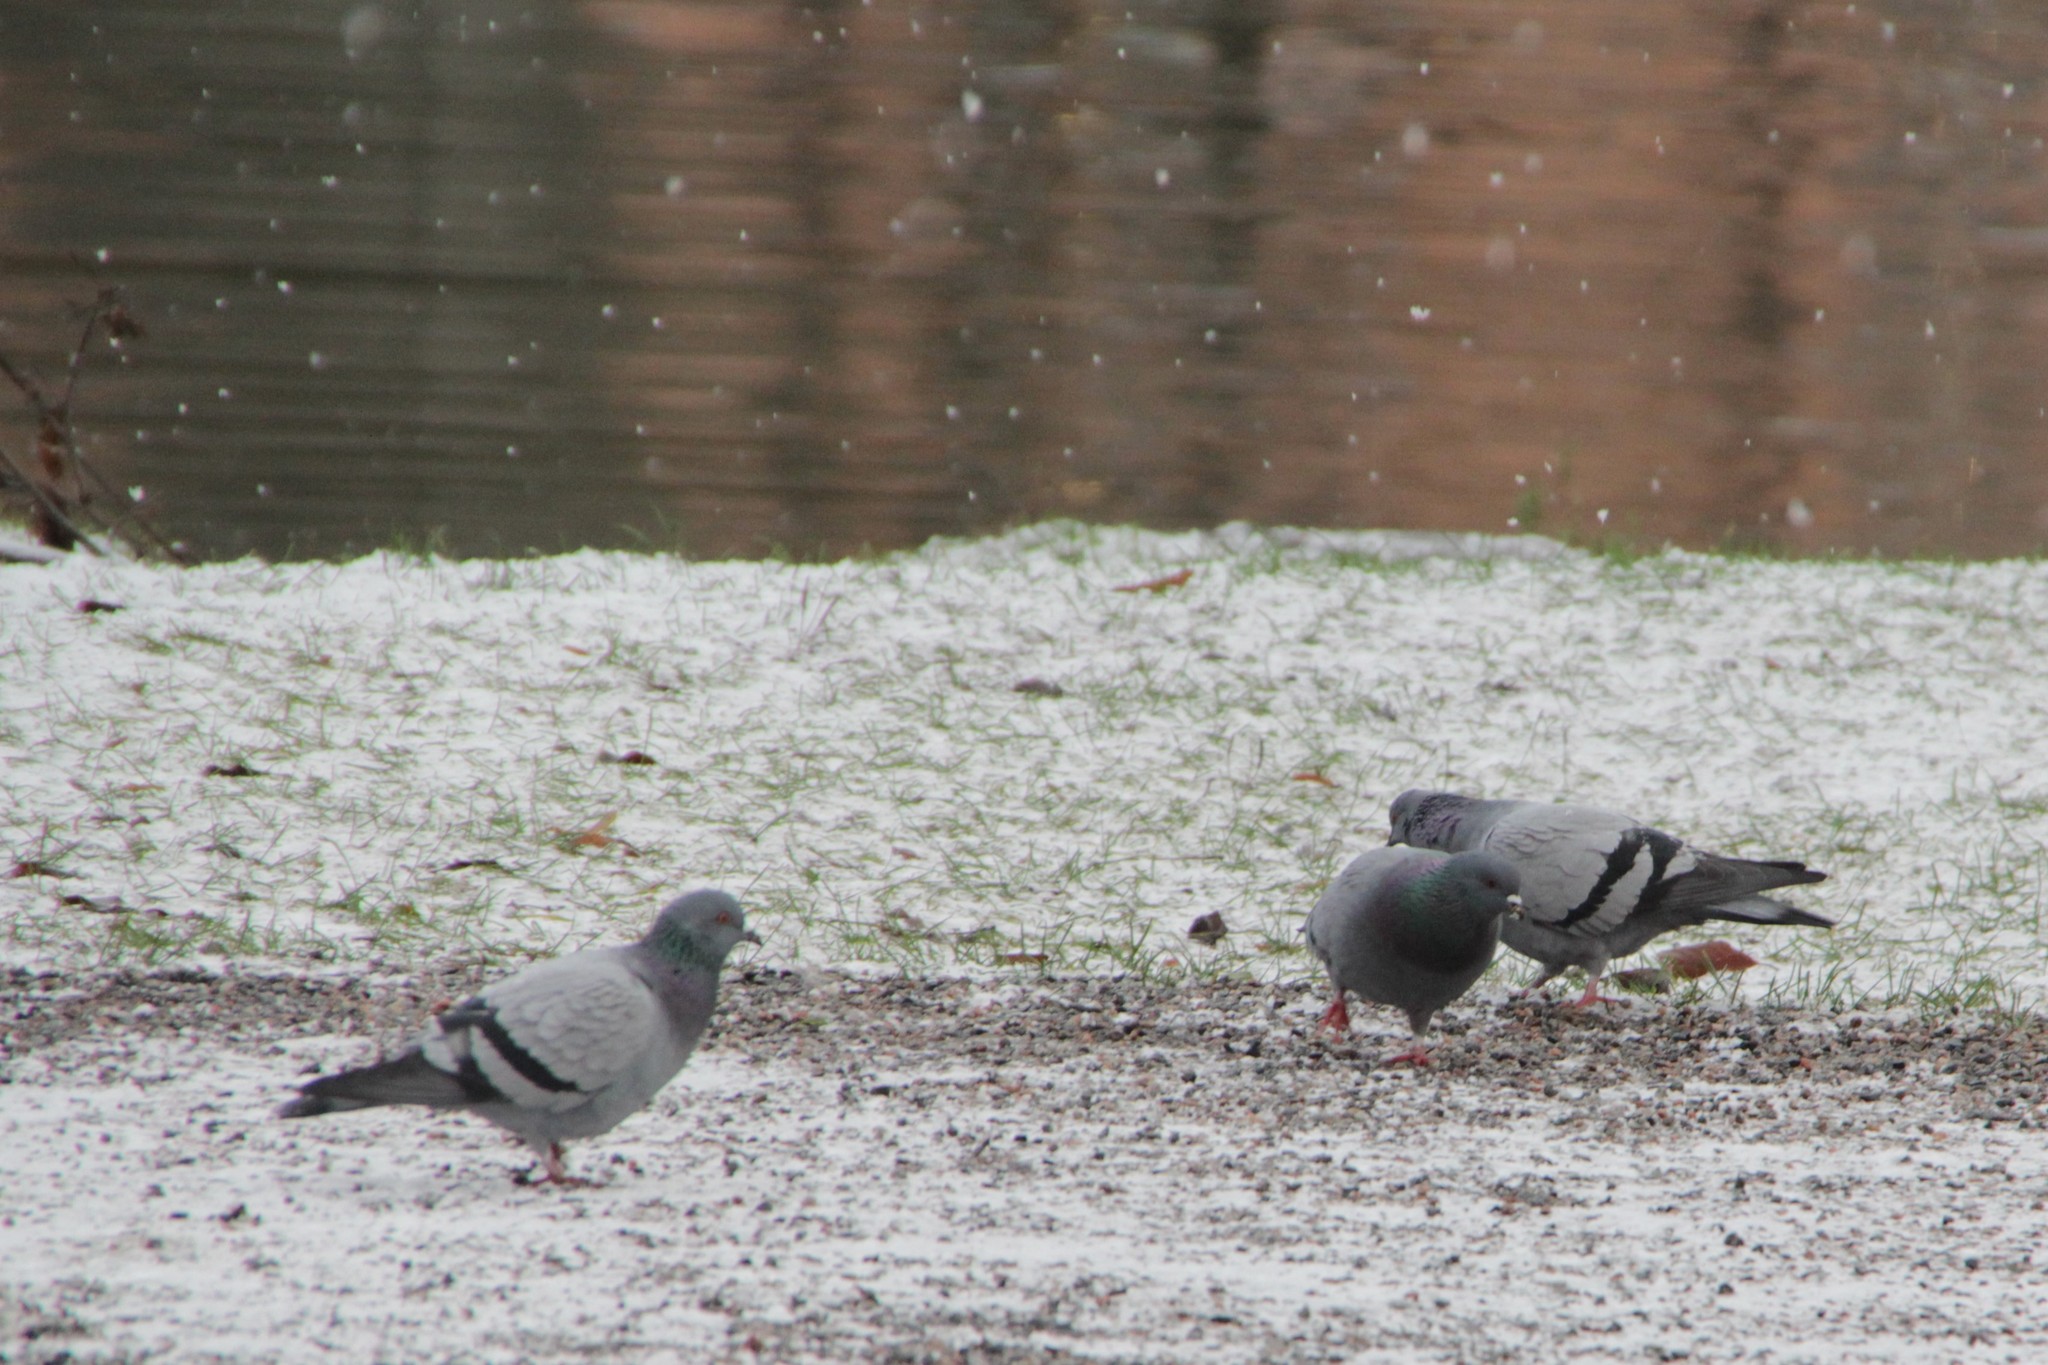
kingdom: Animalia
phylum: Chordata
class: Aves
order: Columbiformes
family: Columbidae
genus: Columba
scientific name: Columba livia
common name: Rock pigeon
